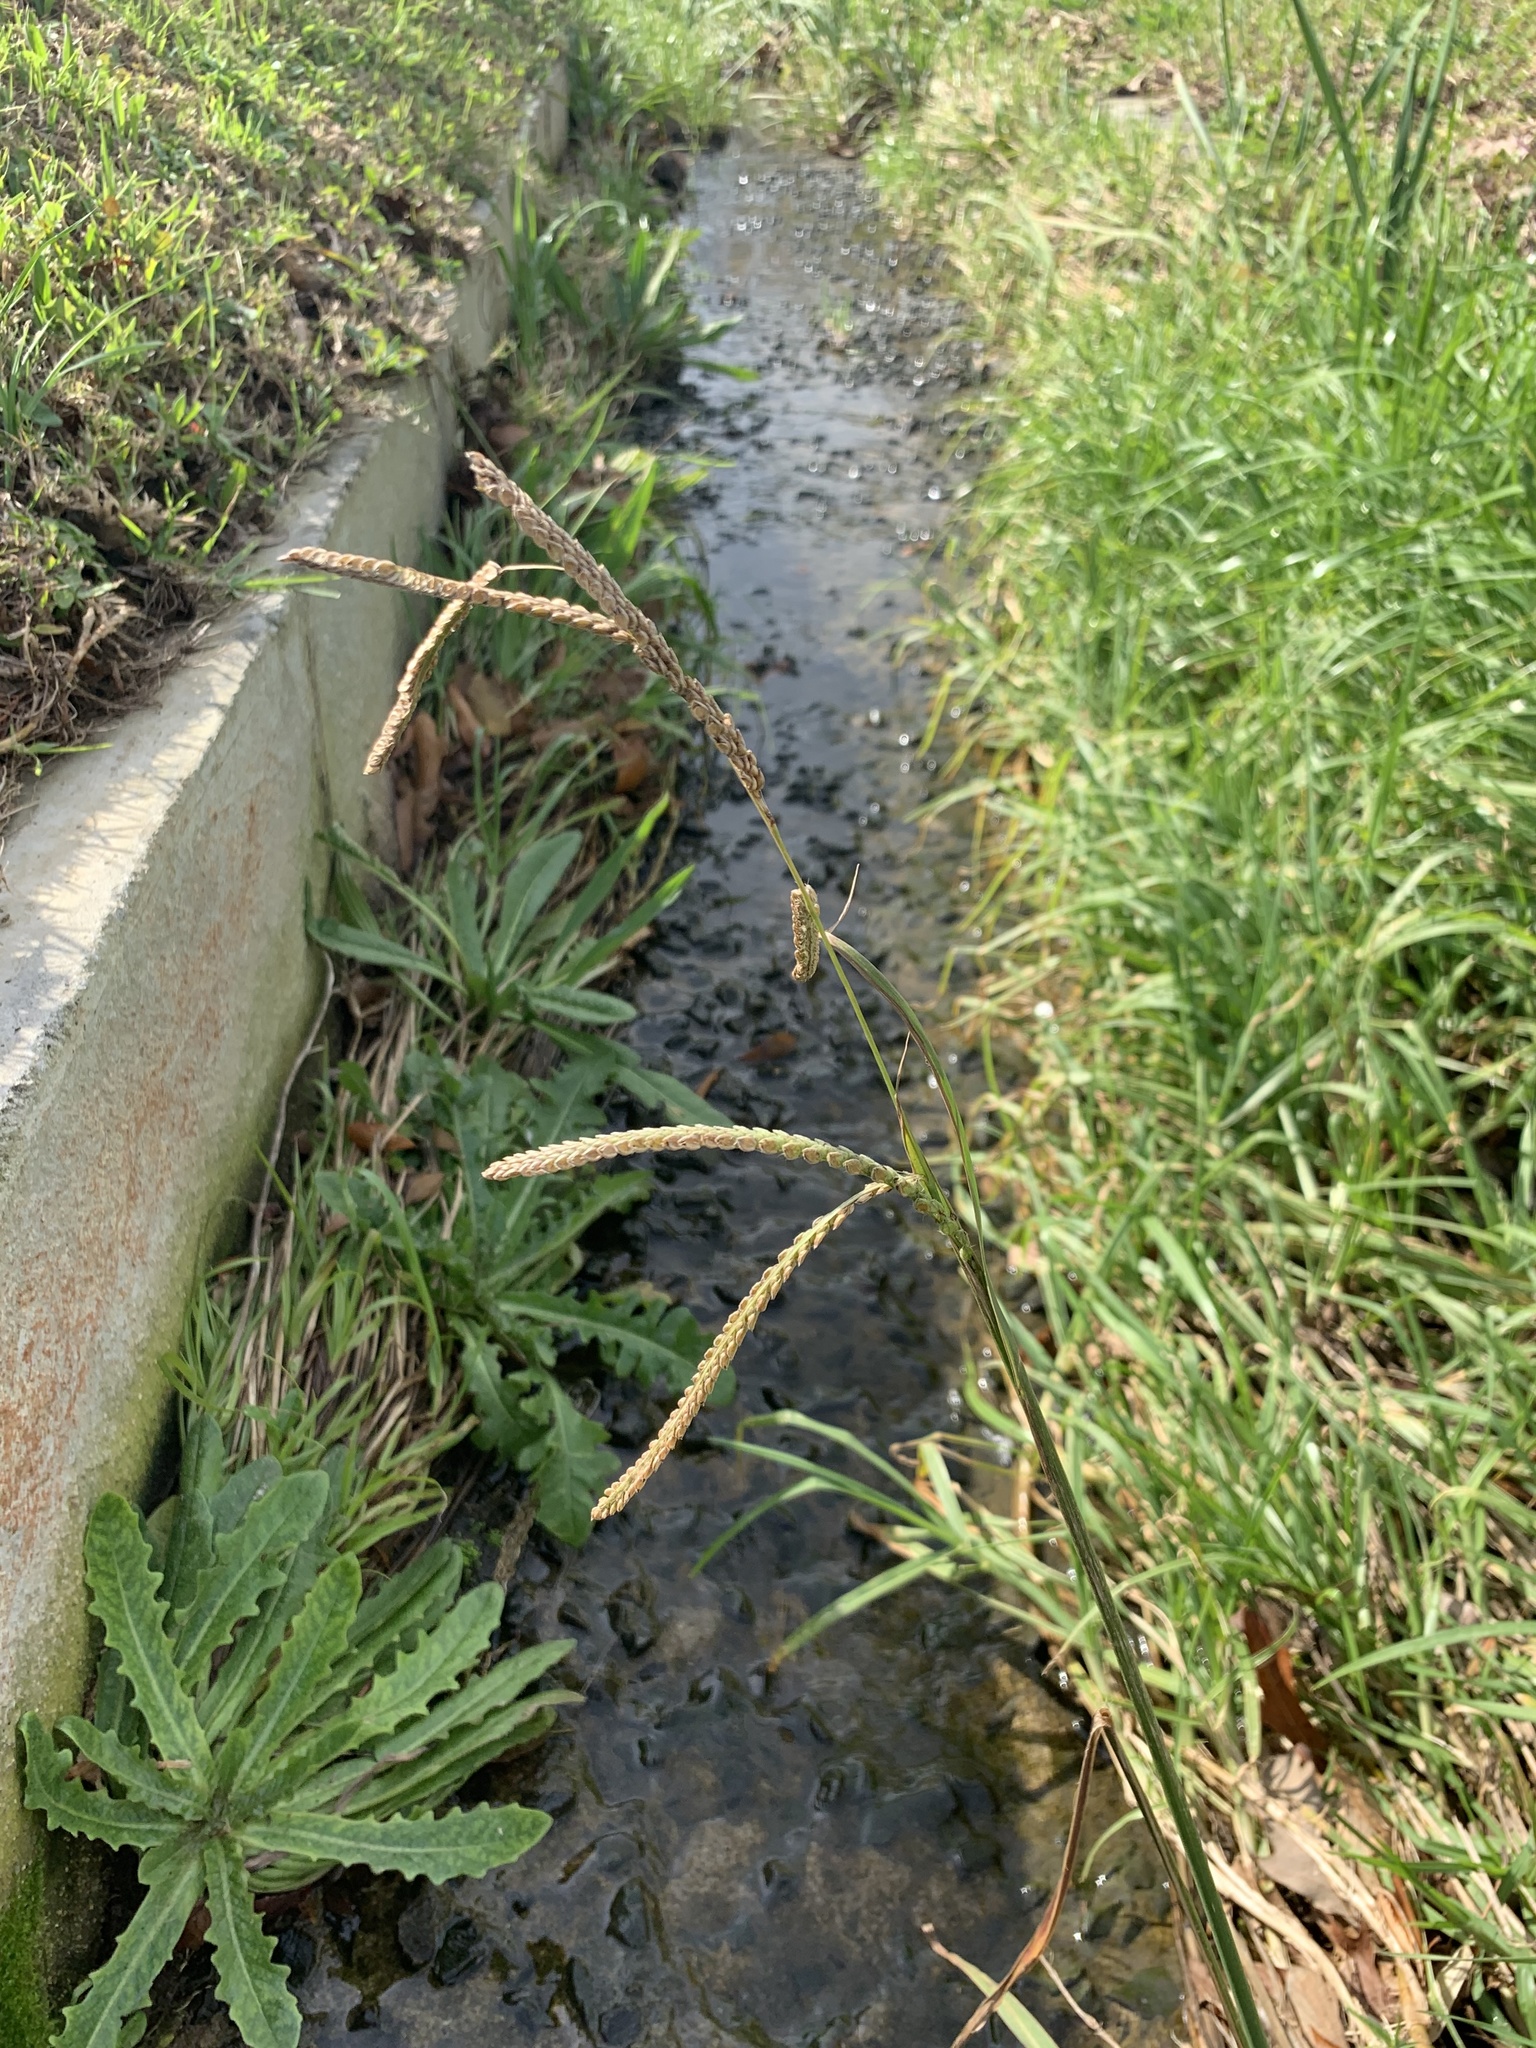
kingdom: Plantae
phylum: Tracheophyta
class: Liliopsida
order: Poales
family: Poaceae
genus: Paspalum
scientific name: Paspalum dilatatum
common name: Dallisgrass
